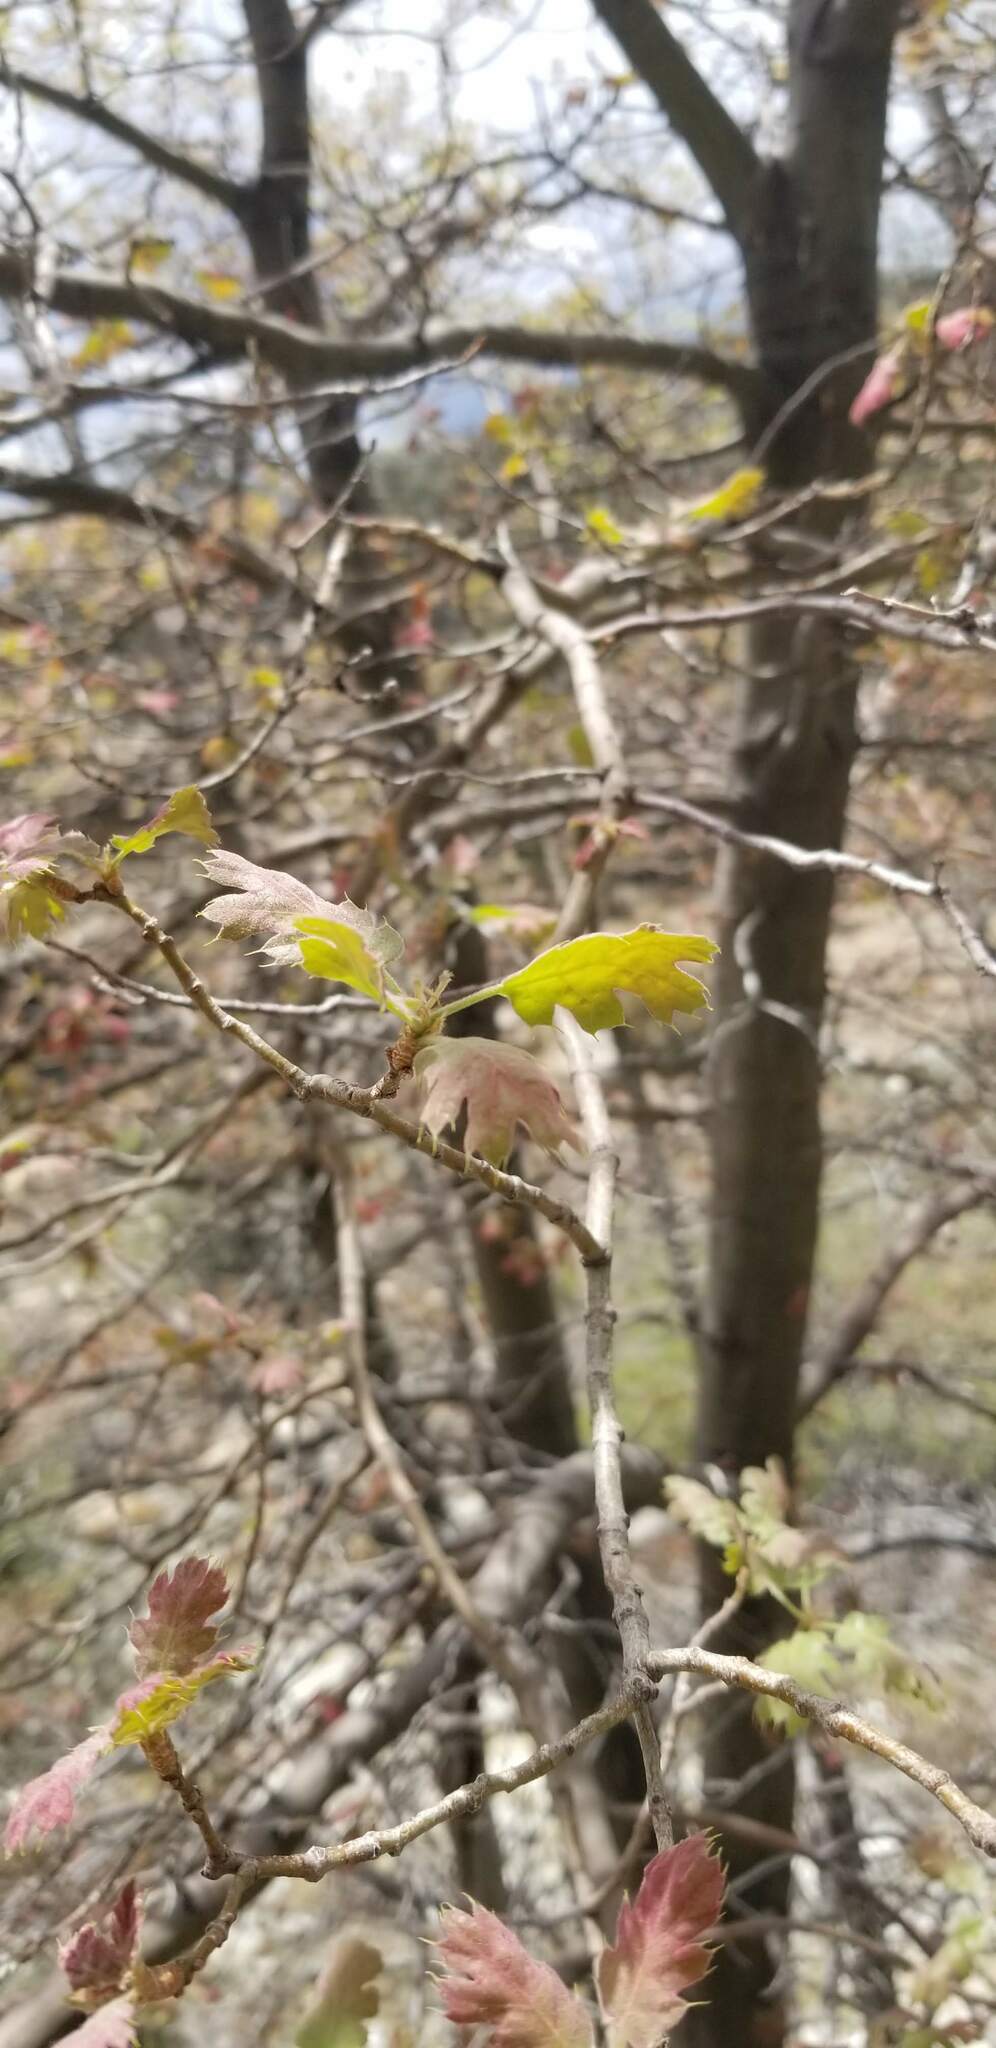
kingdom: Plantae
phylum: Tracheophyta
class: Magnoliopsida
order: Fagales
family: Fagaceae
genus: Quercus
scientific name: Quercus kelloggii
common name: California black oak
